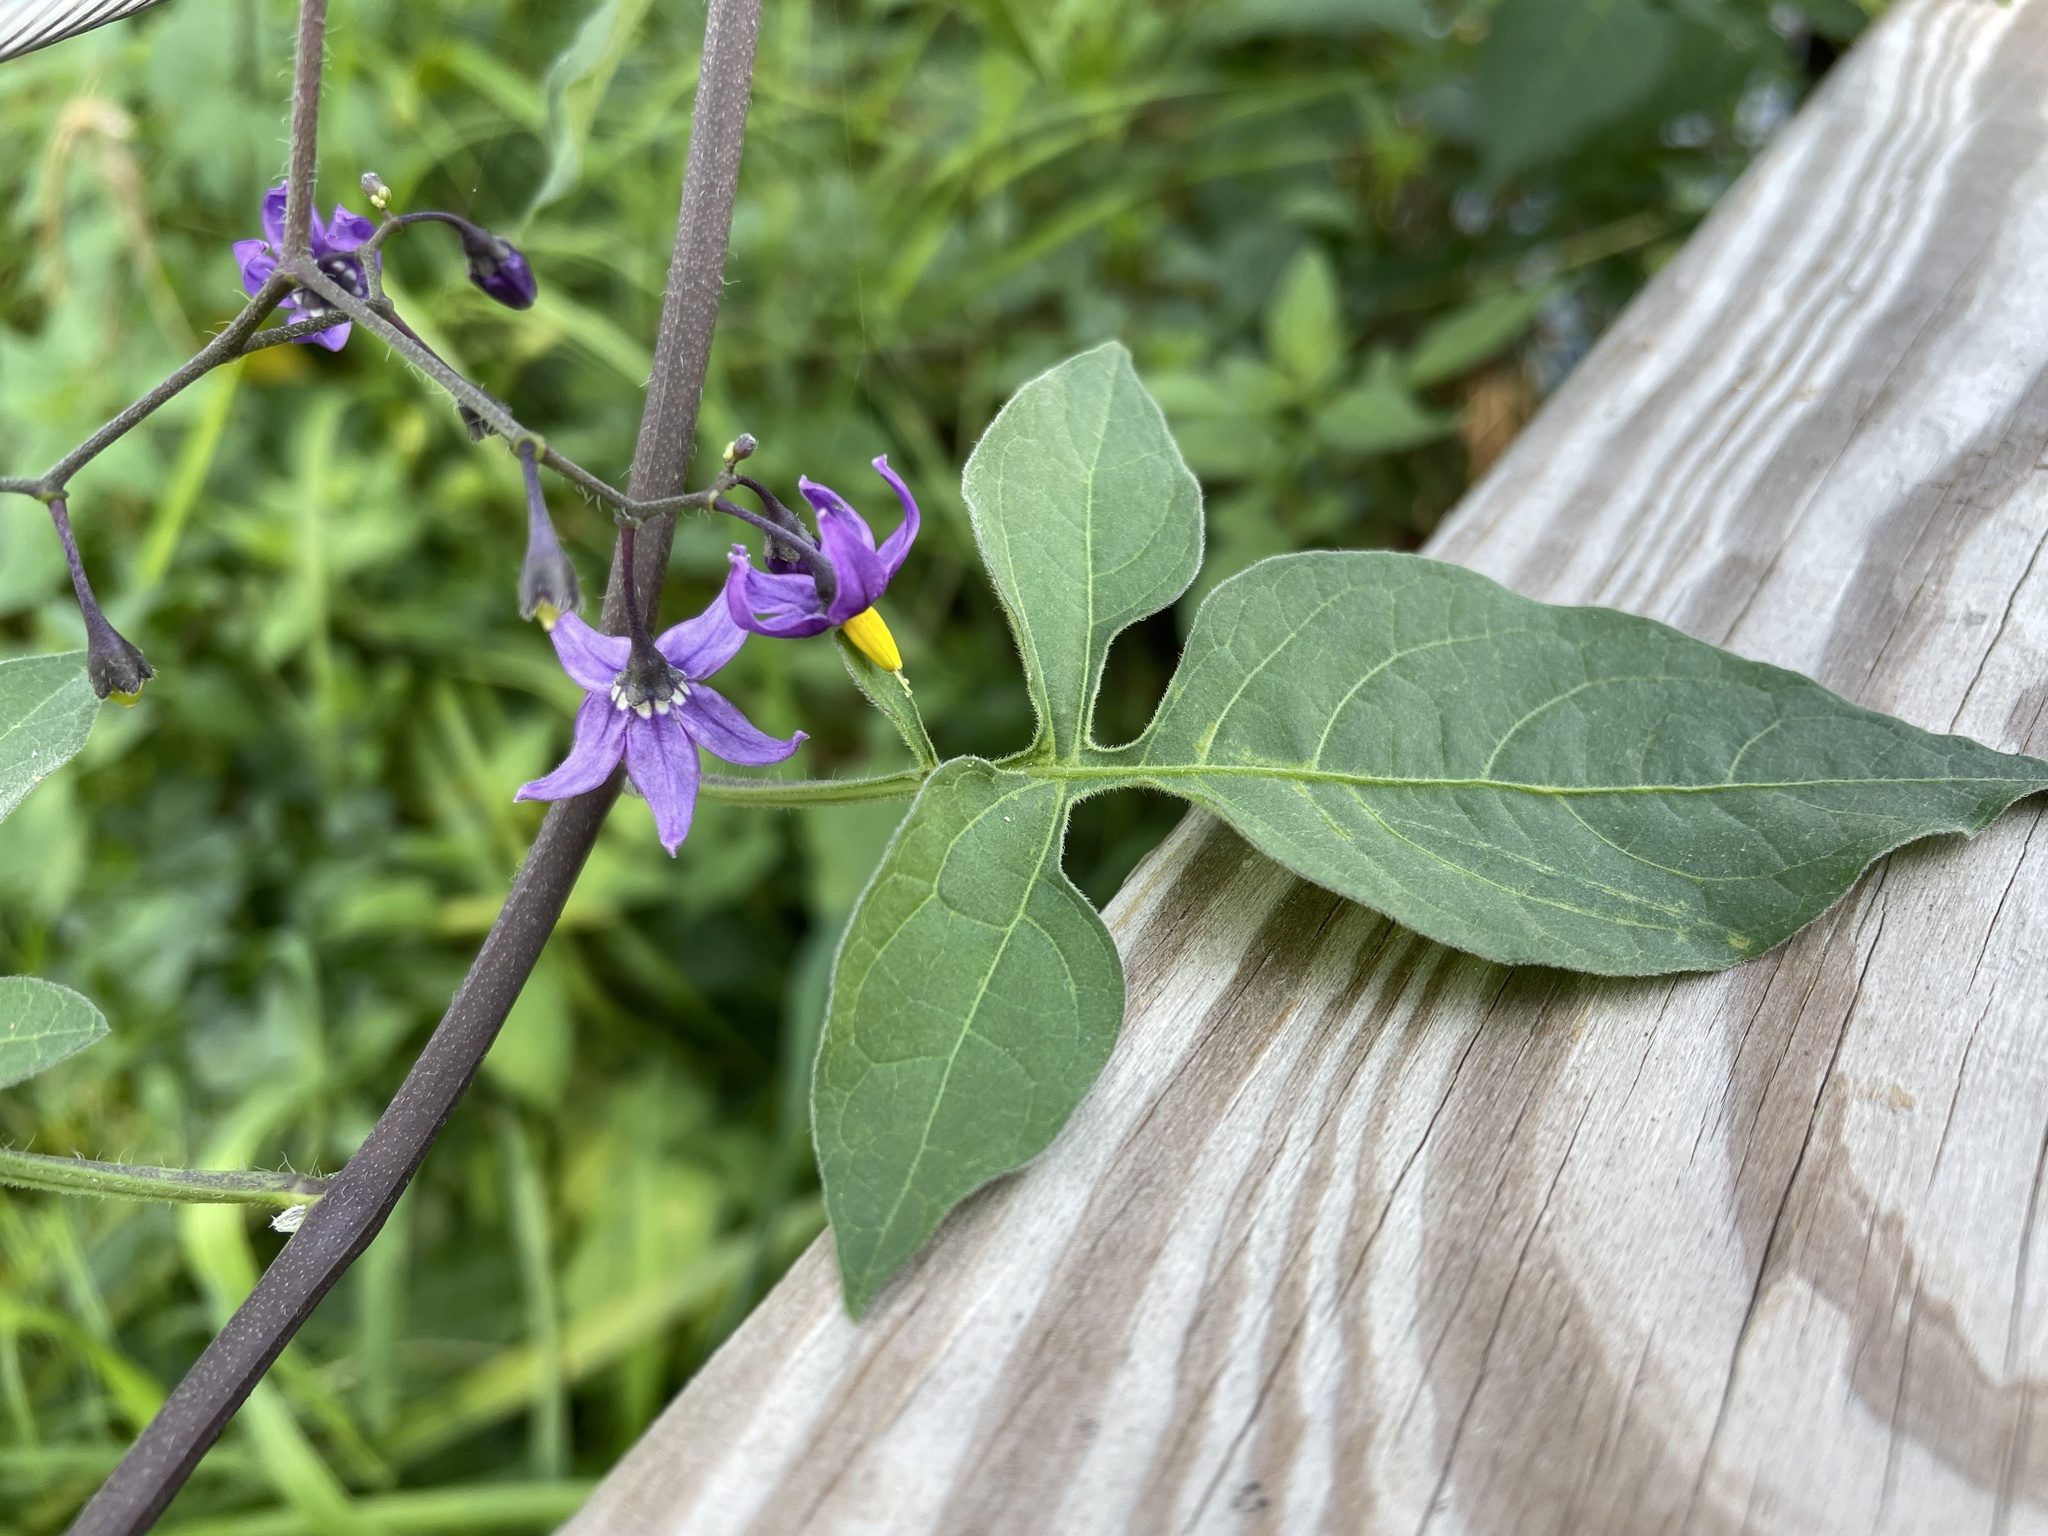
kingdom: Plantae
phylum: Tracheophyta
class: Magnoliopsida
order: Solanales
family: Solanaceae
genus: Solanum
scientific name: Solanum dulcamara
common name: Climbing nightshade
